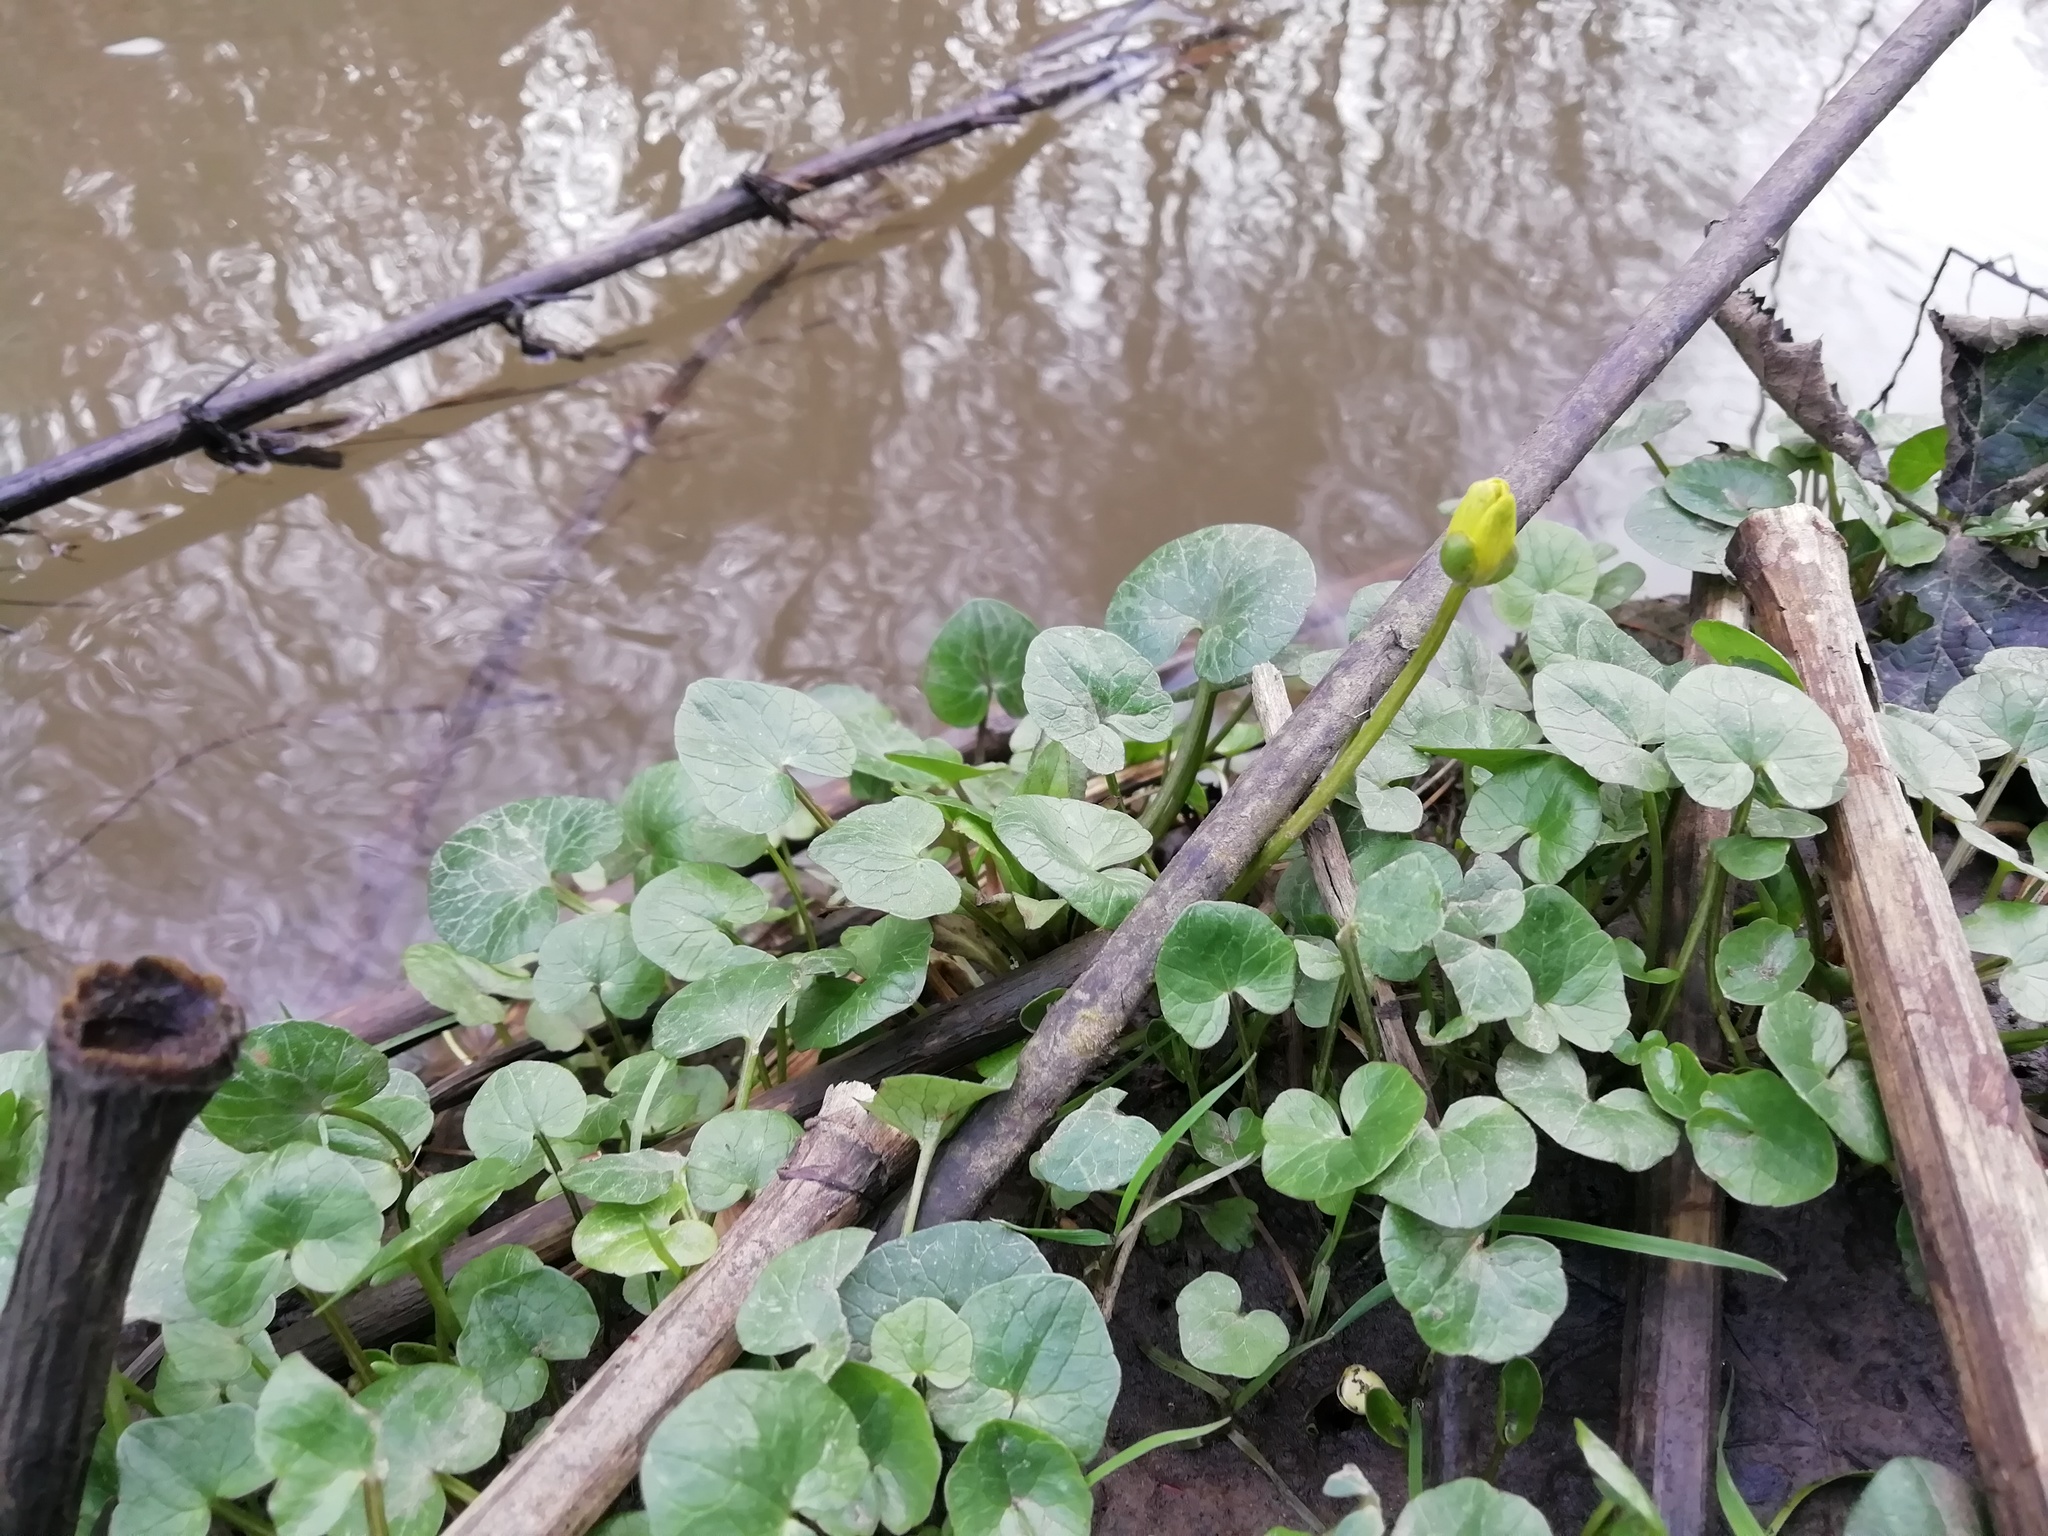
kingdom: Plantae
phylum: Tracheophyta
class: Magnoliopsida
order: Ranunculales
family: Ranunculaceae
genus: Ficaria
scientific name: Ficaria verna
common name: Lesser celandine
